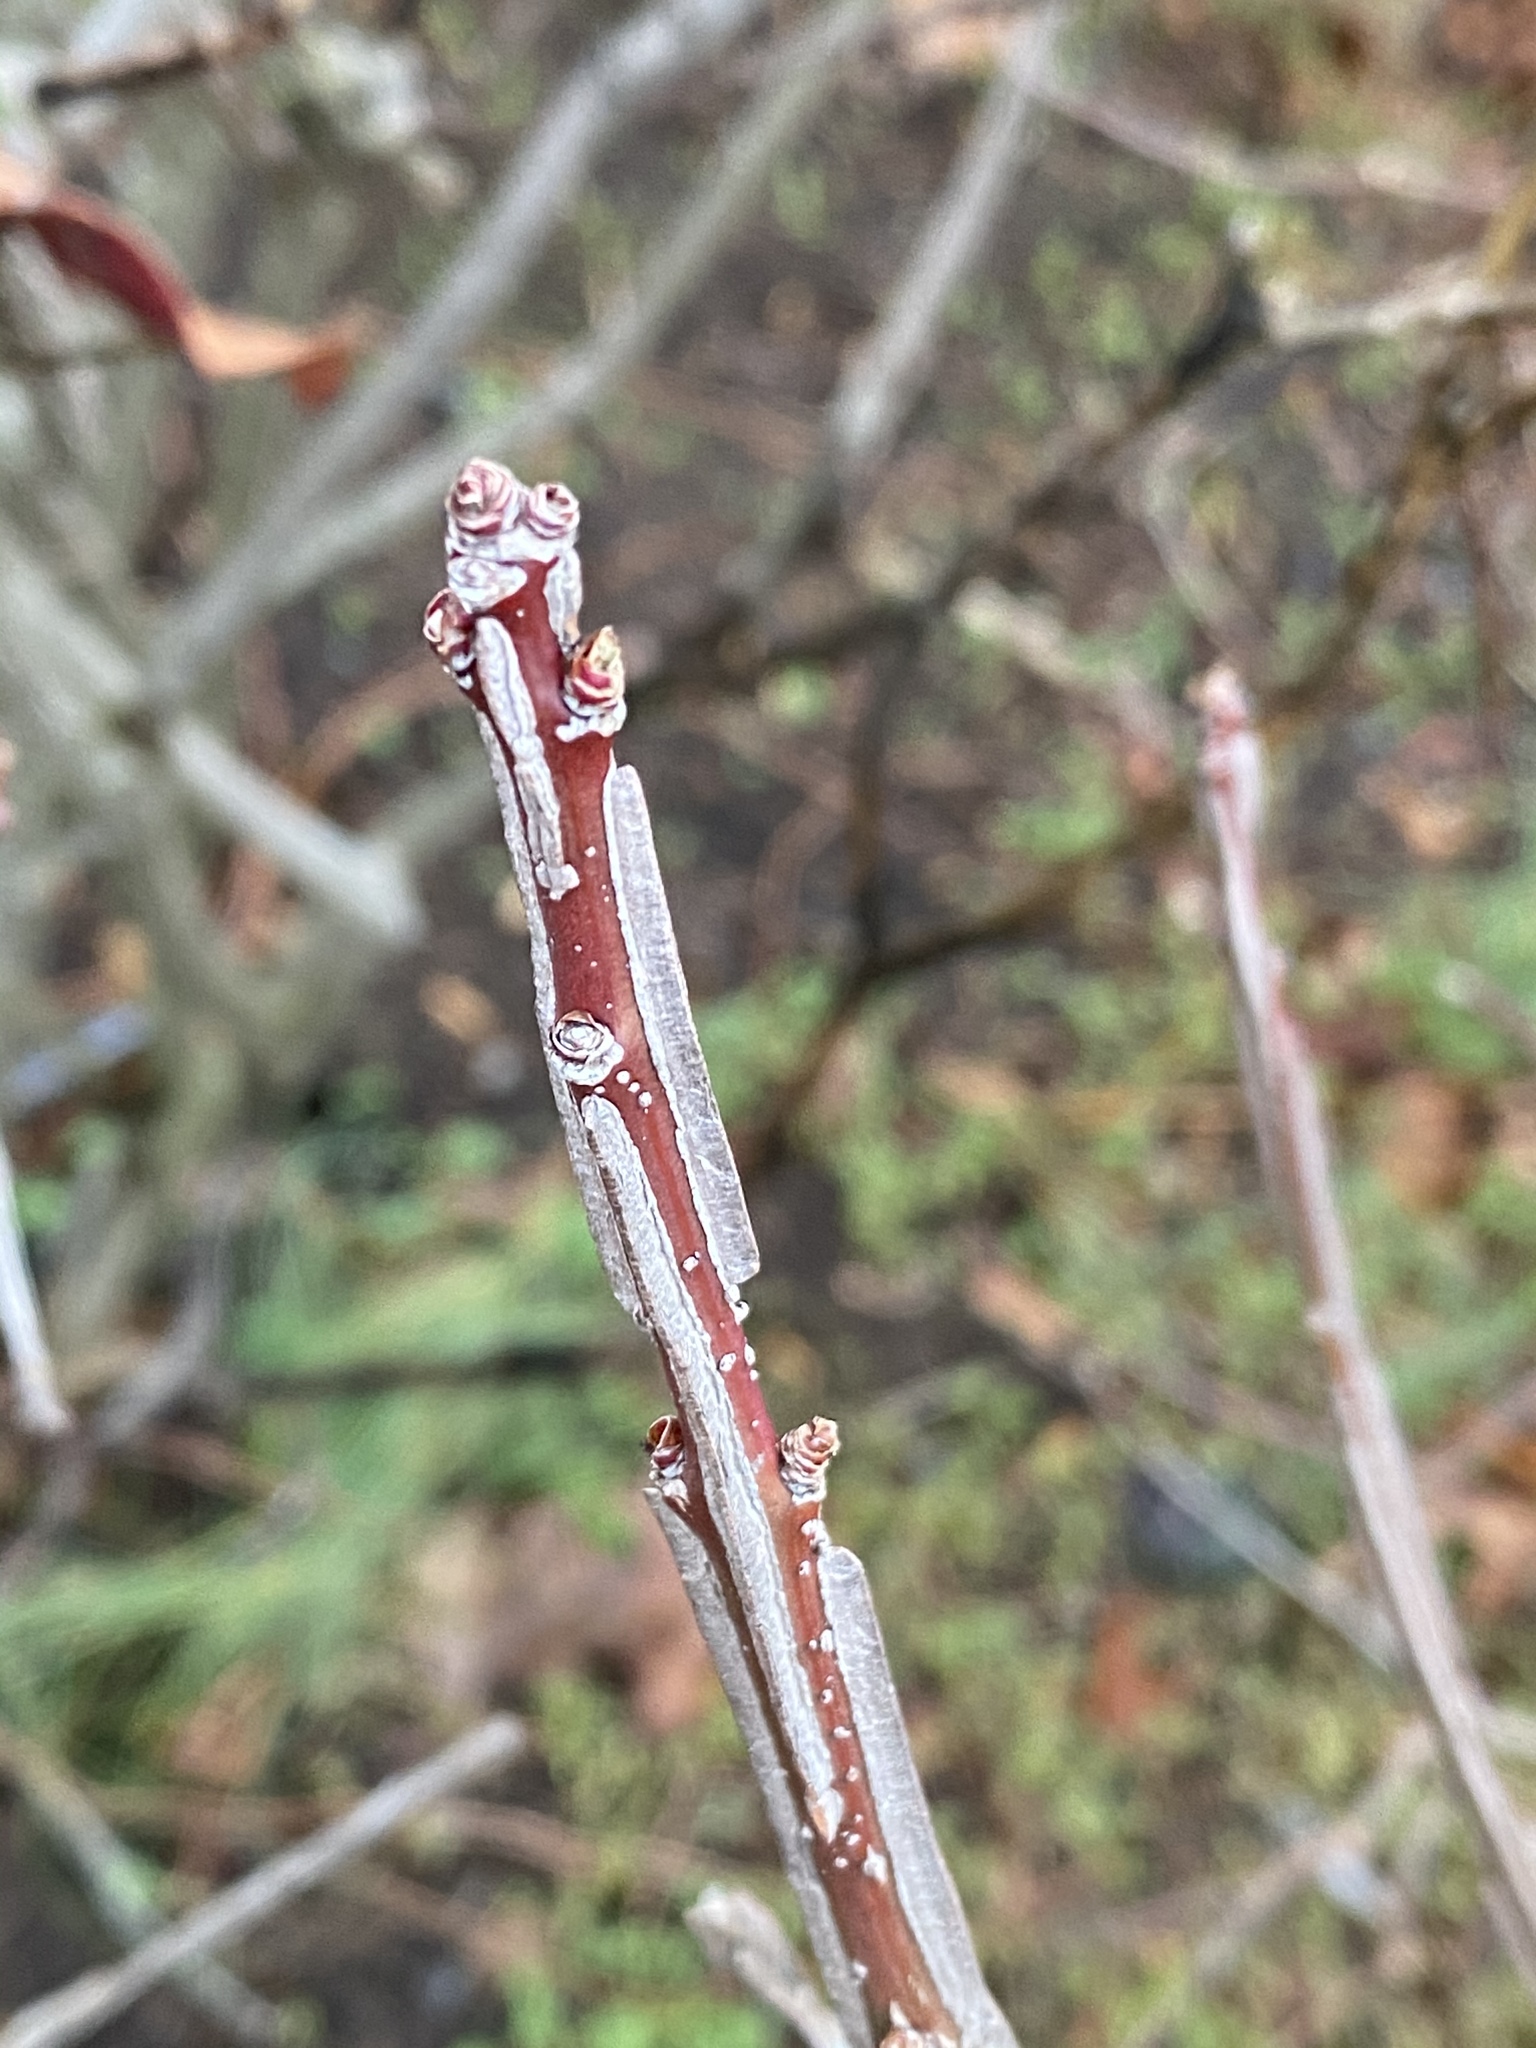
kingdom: Plantae
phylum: Tracheophyta
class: Magnoliopsida
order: Celastrales
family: Celastraceae
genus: Euonymus
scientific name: Euonymus alatus
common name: Winged euonymus
